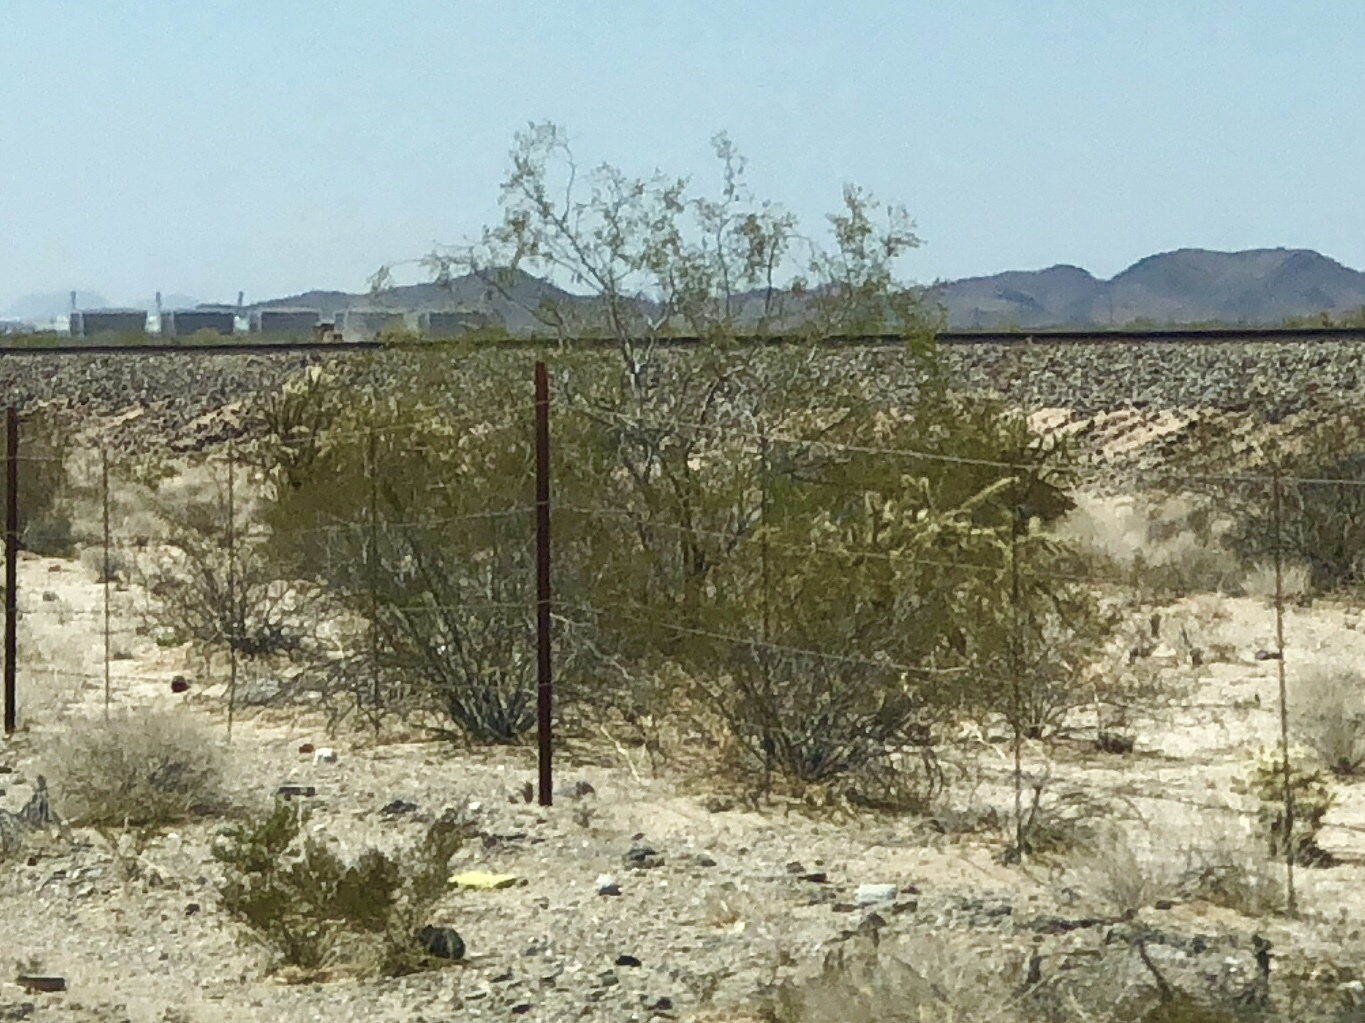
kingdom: Plantae
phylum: Tracheophyta
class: Magnoliopsida
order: Zygophyllales
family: Zygophyllaceae
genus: Larrea
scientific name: Larrea tridentata
